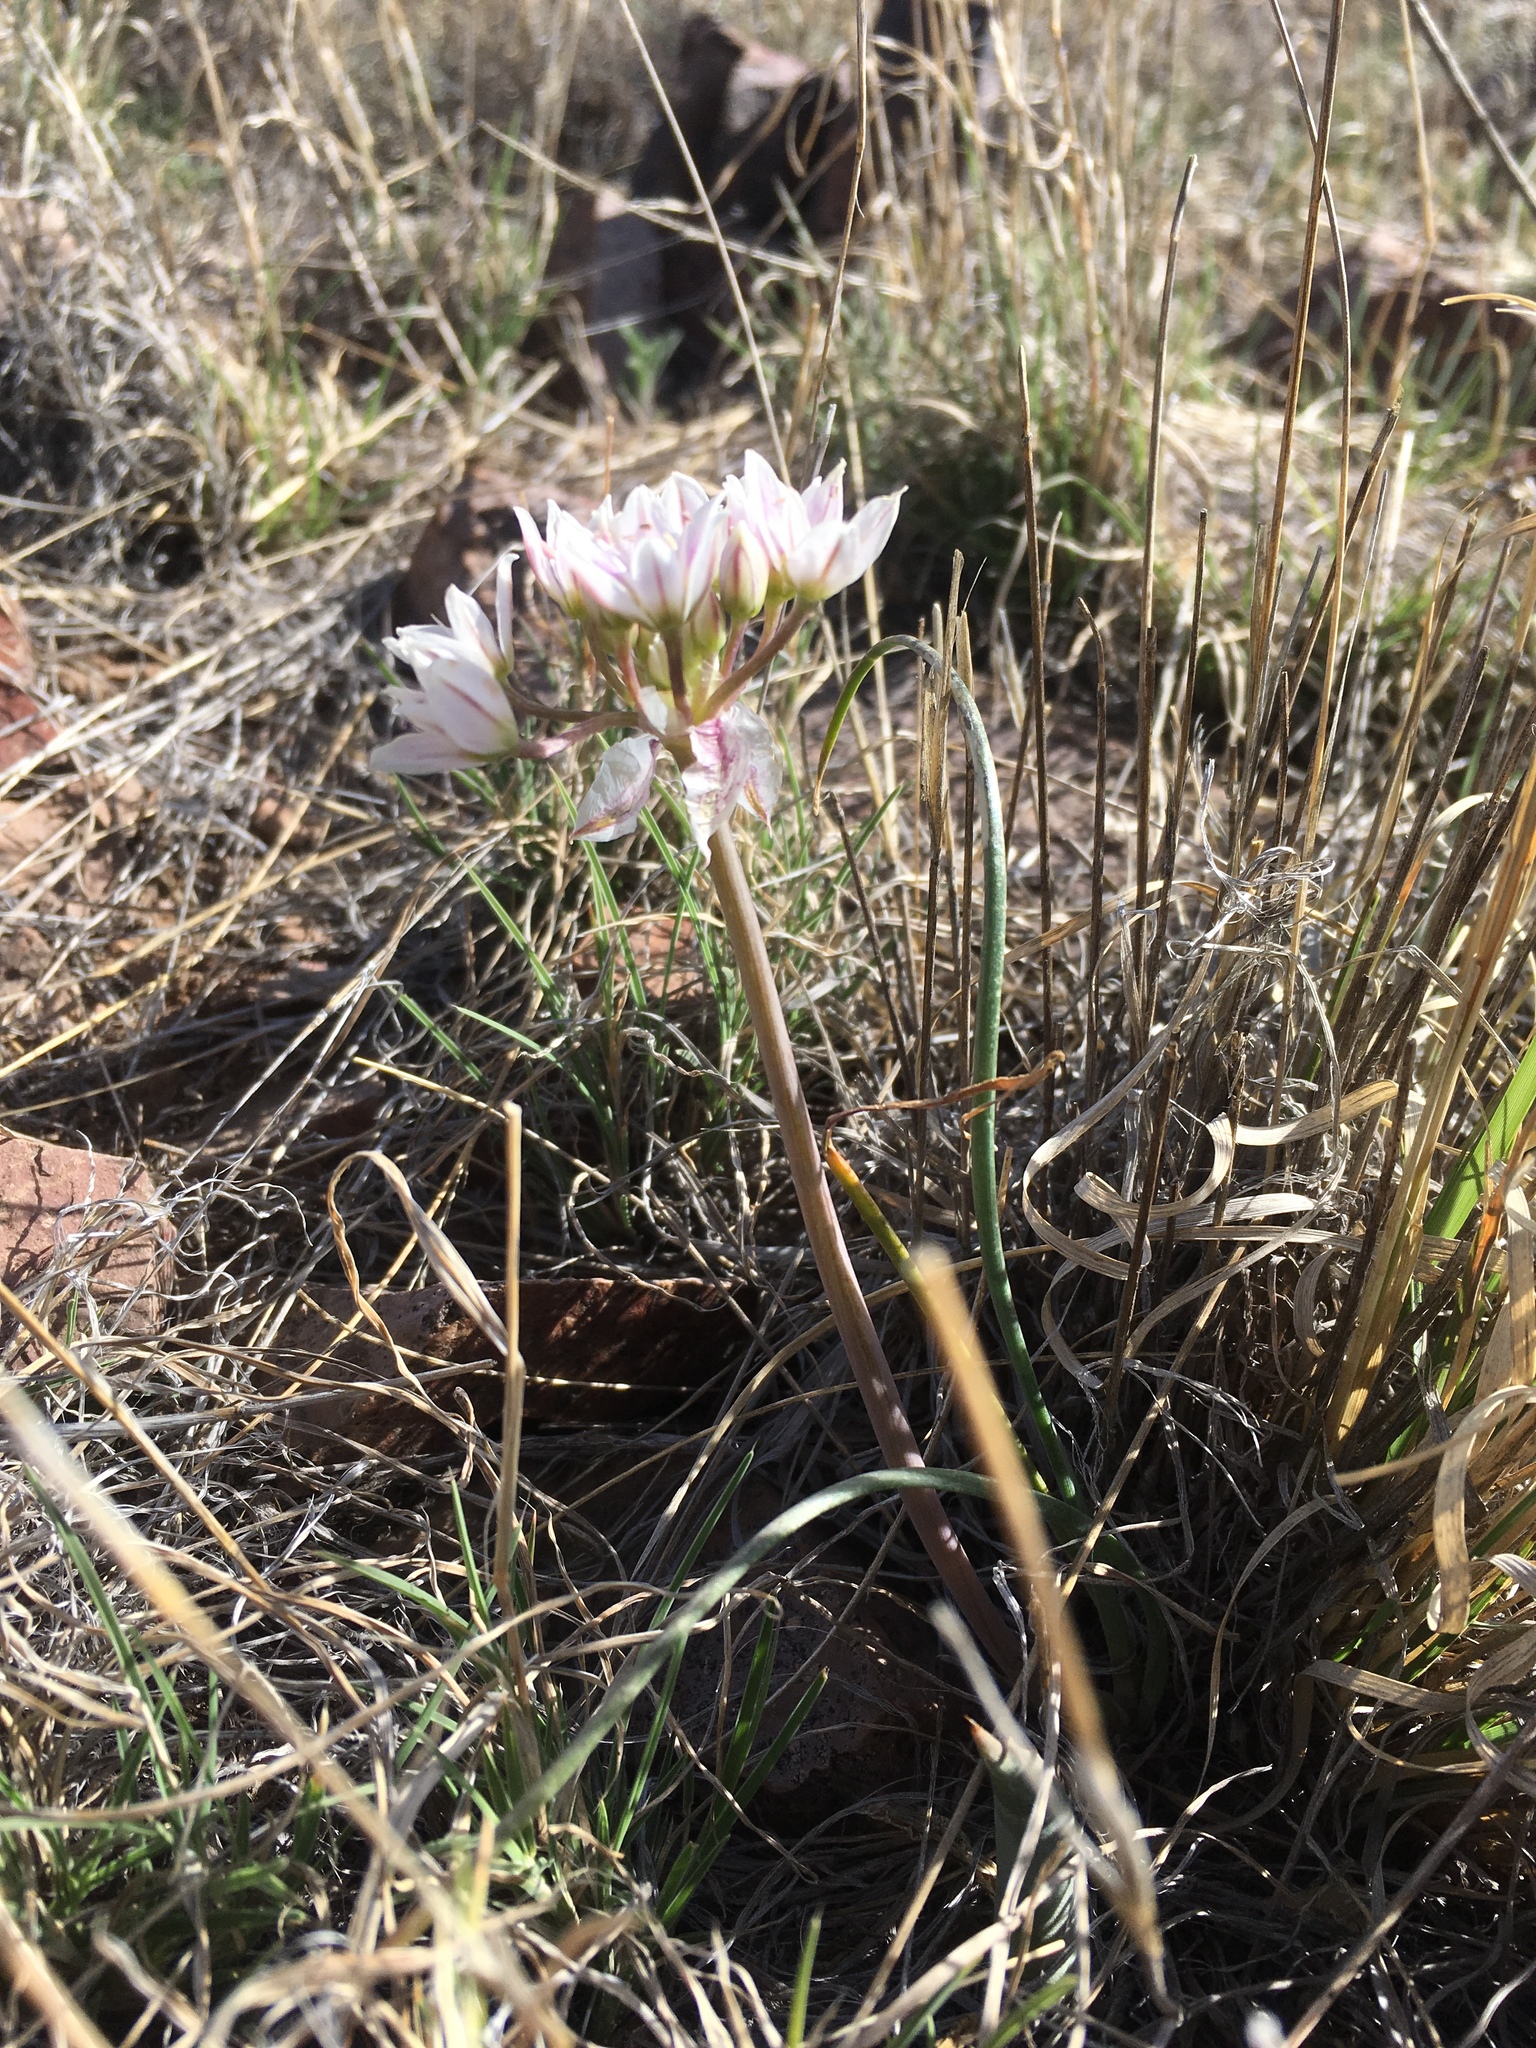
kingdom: Plantae
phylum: Tracheophyta
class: Liliopsida
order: Asparagales
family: Amaryllidaceae
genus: Allium
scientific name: Allium macropetalum
